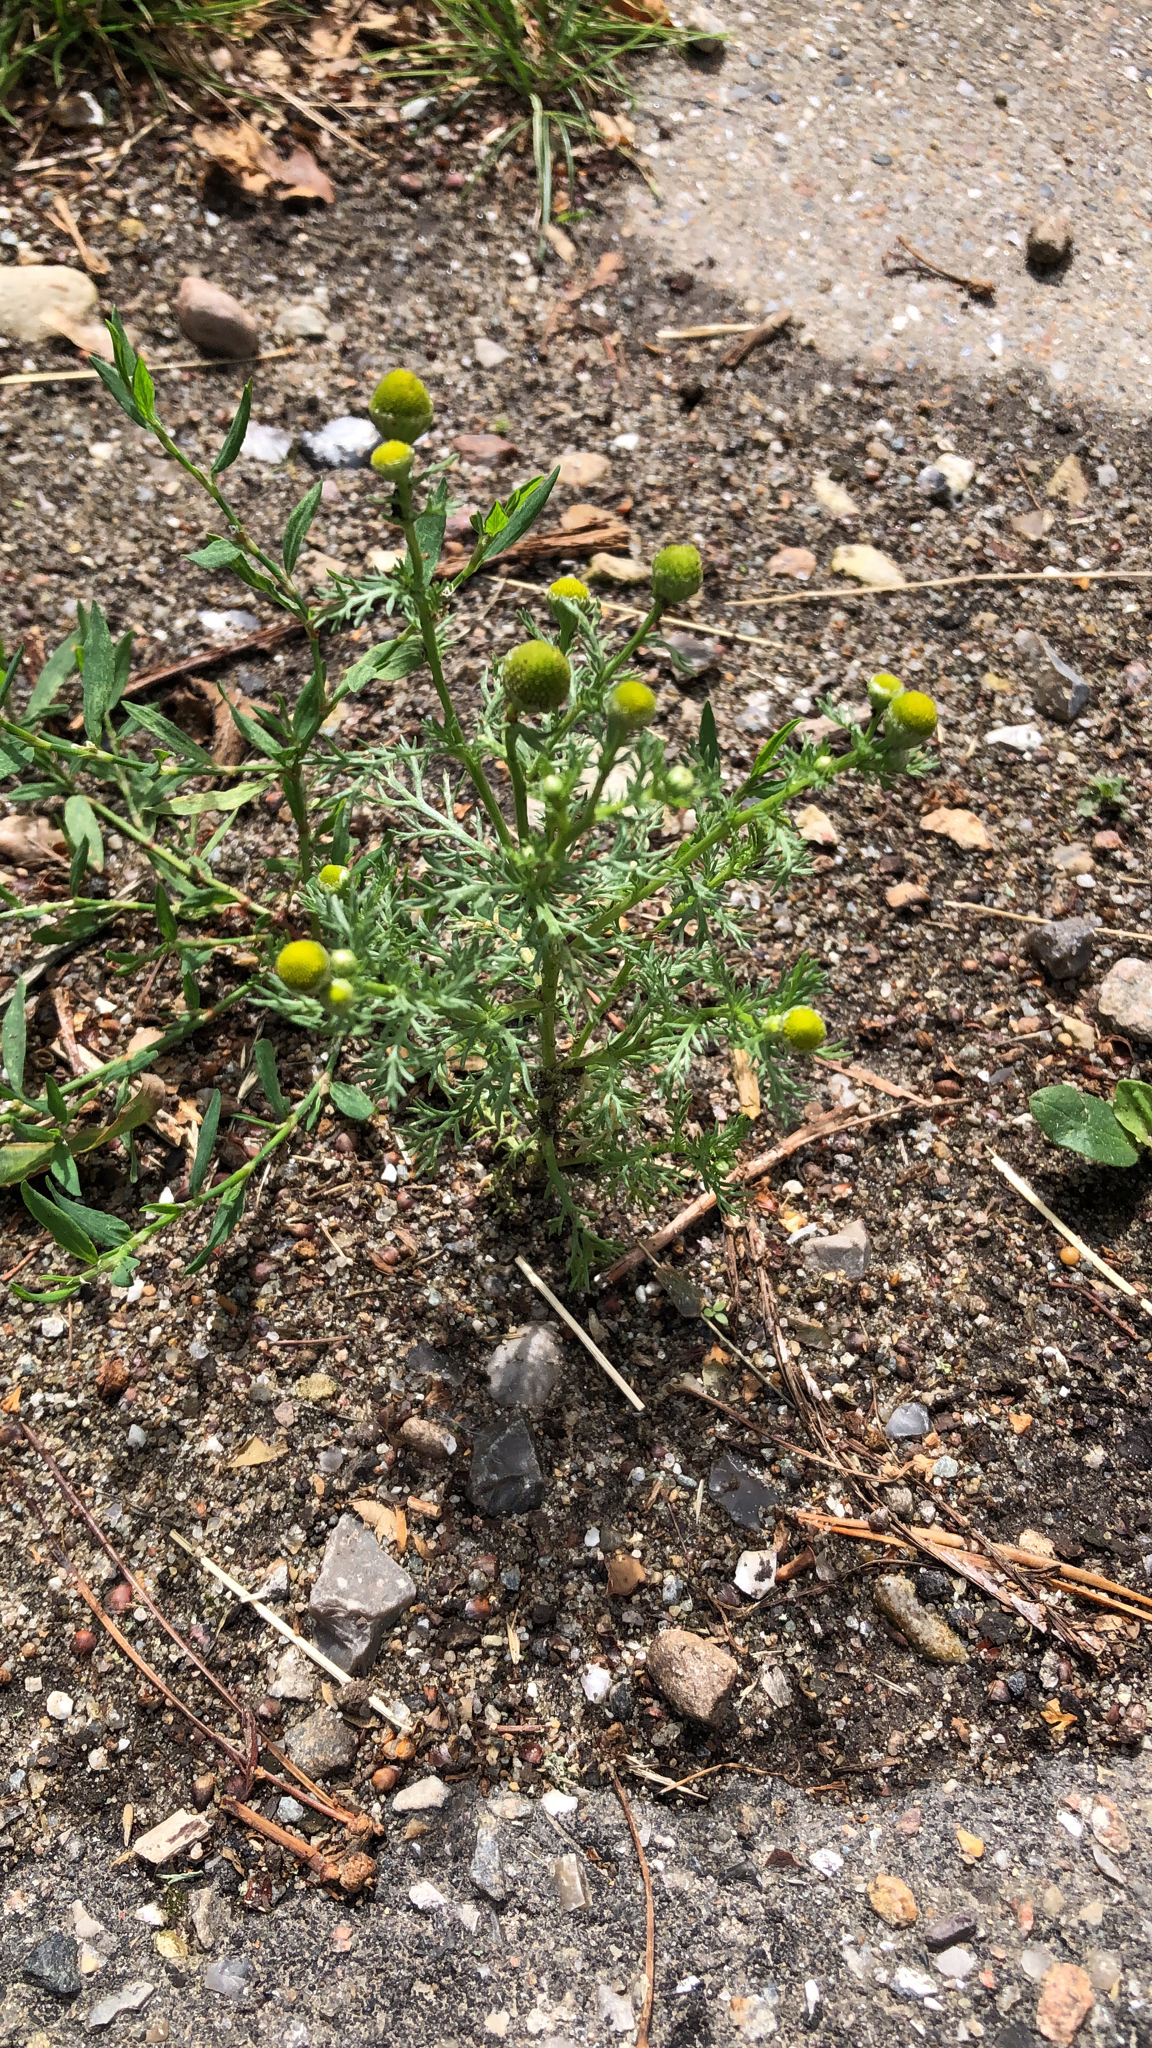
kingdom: Plantae
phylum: Tracheophyta
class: Magnoliopsida
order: Asterales
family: Asteraceae
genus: Matricaria
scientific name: Matricaria discoidea
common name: Disc mayweed
